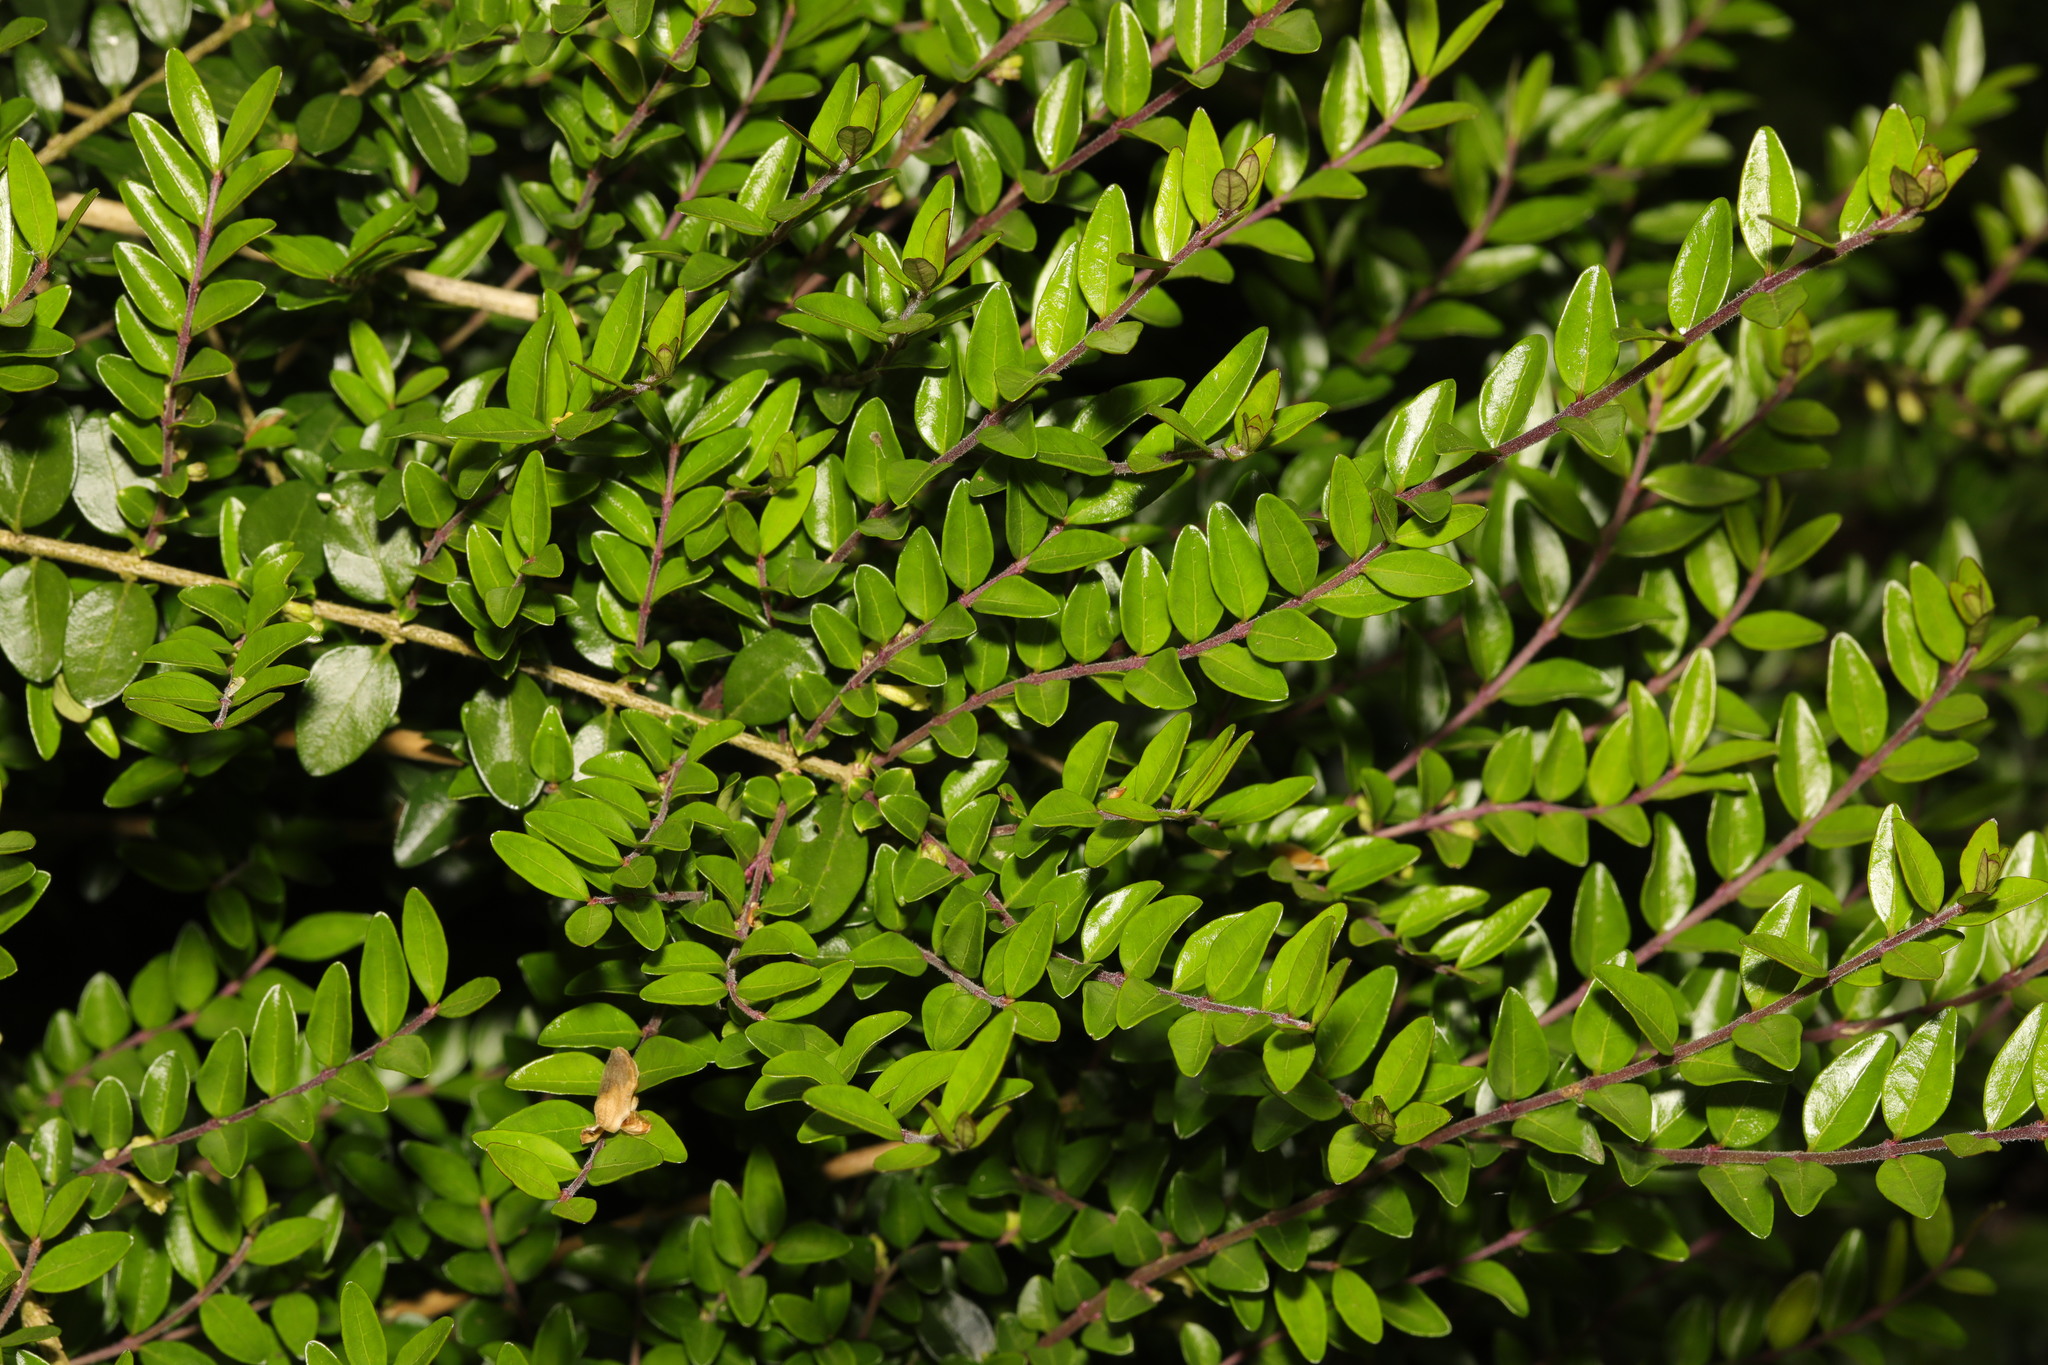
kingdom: Plantae
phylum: Tracheophyta
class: Magnoliopsida
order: Dipsacales
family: Caprifoliaceae
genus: Lonicera
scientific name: Lonicera ligustrina
